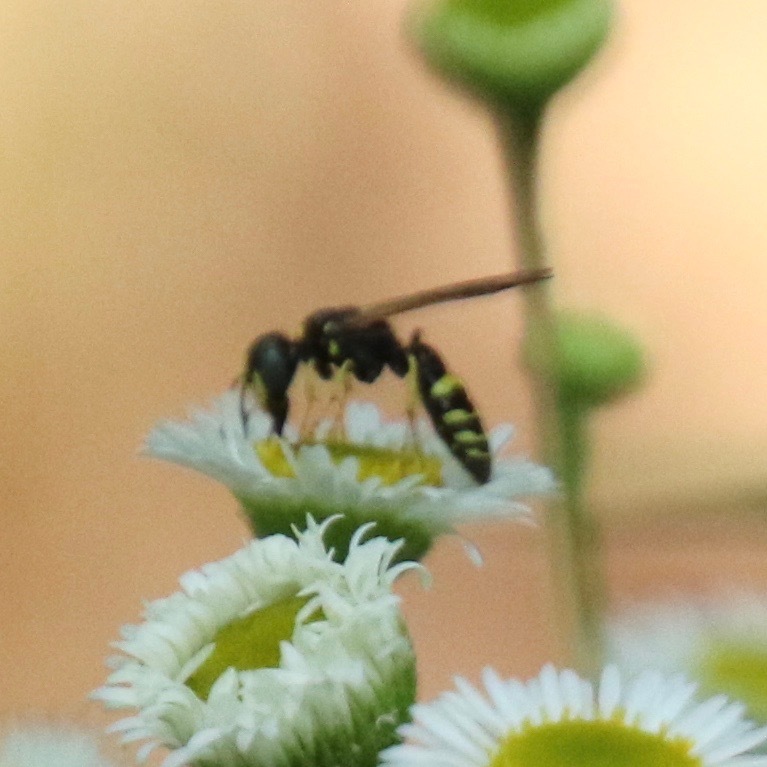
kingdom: Animalia
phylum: Arthropoda
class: Insecta
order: Hymenoptera
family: Crabronidae
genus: Philanthus
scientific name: Philanthus bilunatus
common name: Two moons beewolf
